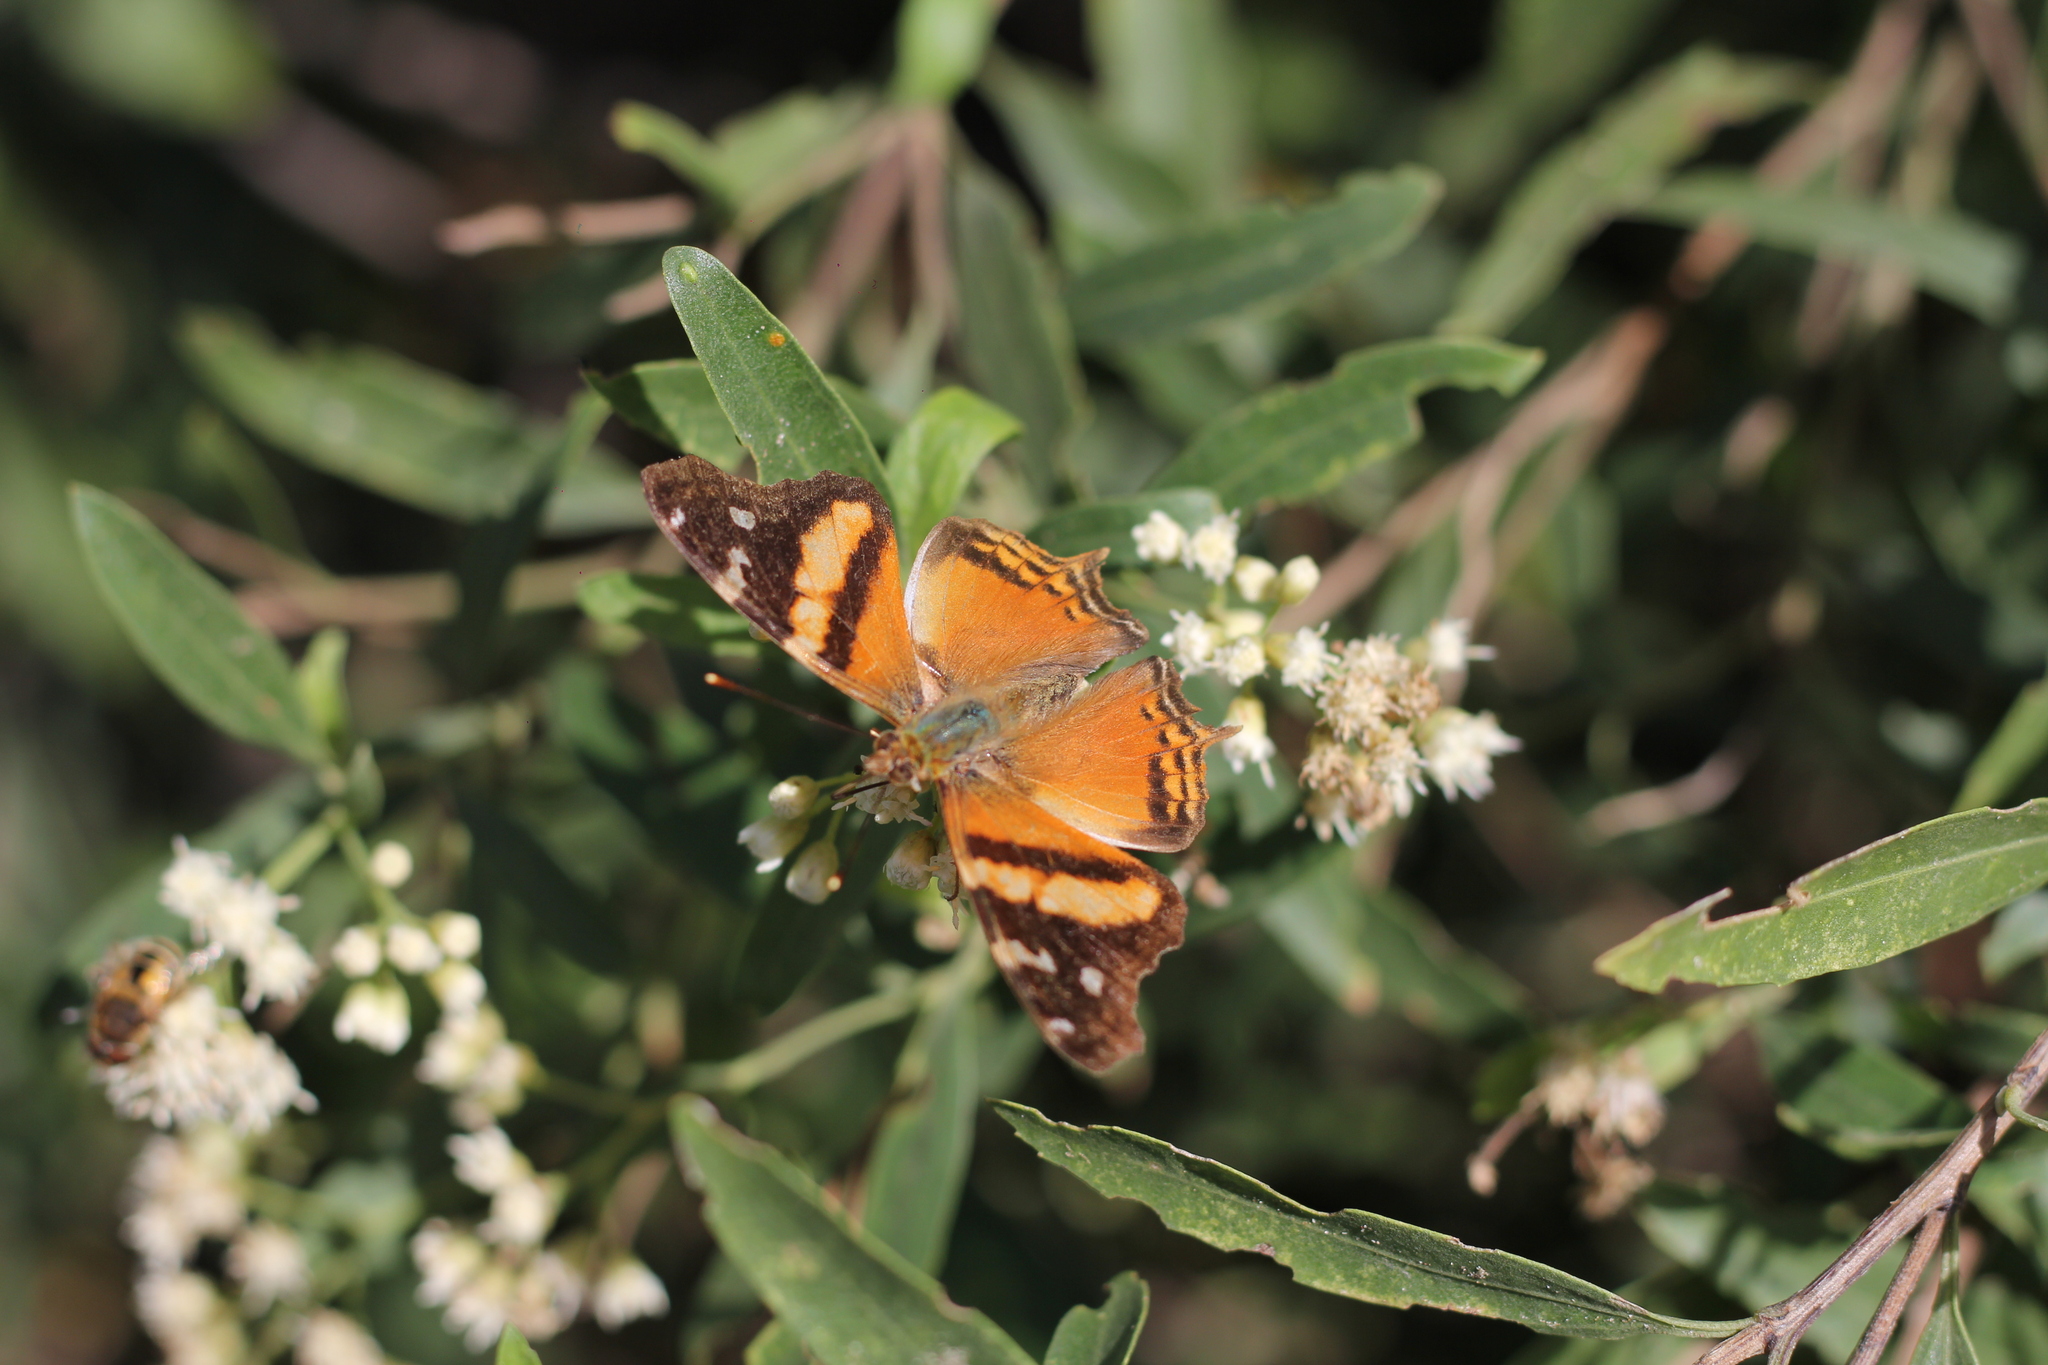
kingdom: Animalia
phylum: Arthropoda
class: Insecta
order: Lepidoptera
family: Nymphalidae
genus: Hypanartia
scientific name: Hypanartia bella
